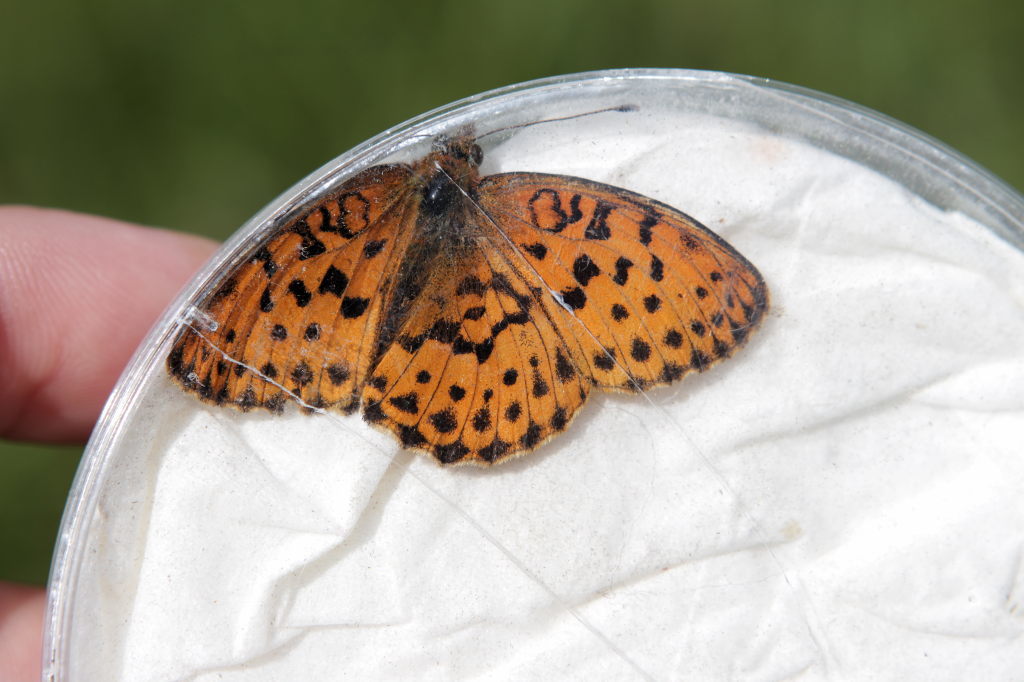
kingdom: Animalia
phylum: Arthropoda
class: Insecta
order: Lepidoptera
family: Nymphalidae
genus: Brenthis
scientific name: Brenthis daphne
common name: Marbled fritillary
